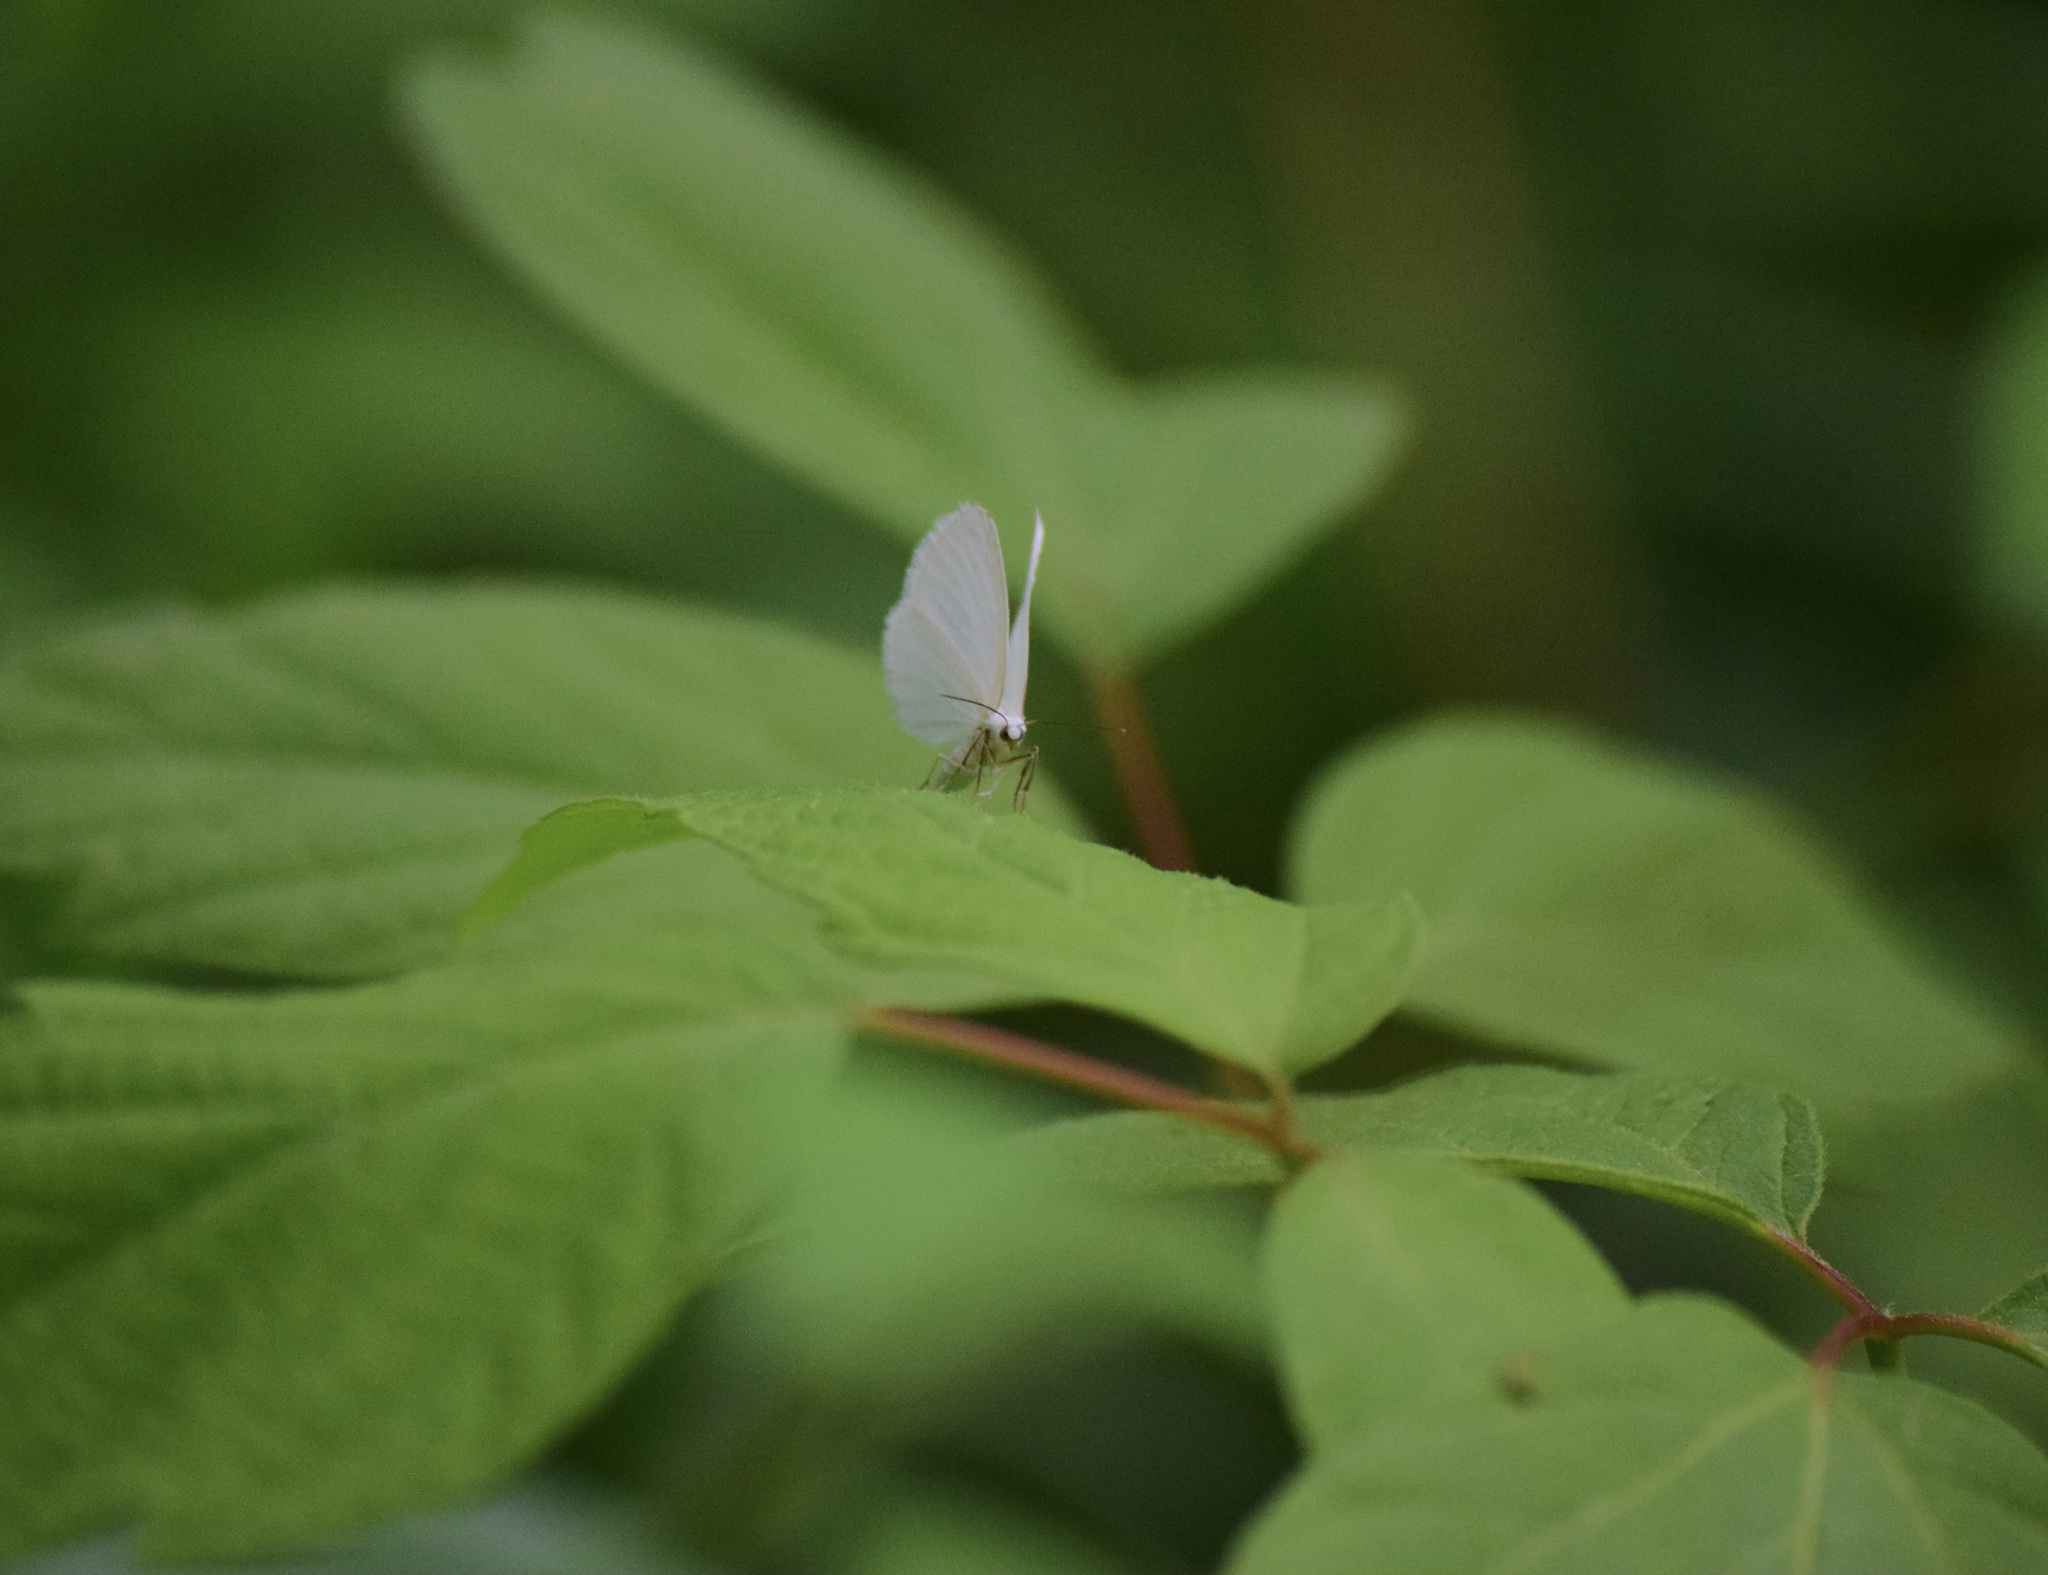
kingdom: Animalia
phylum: Arthropoda
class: Insecta
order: Lepidoptera
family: Geometridae
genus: Lomographa
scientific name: Lomographa vestaliata
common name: White spring moth
